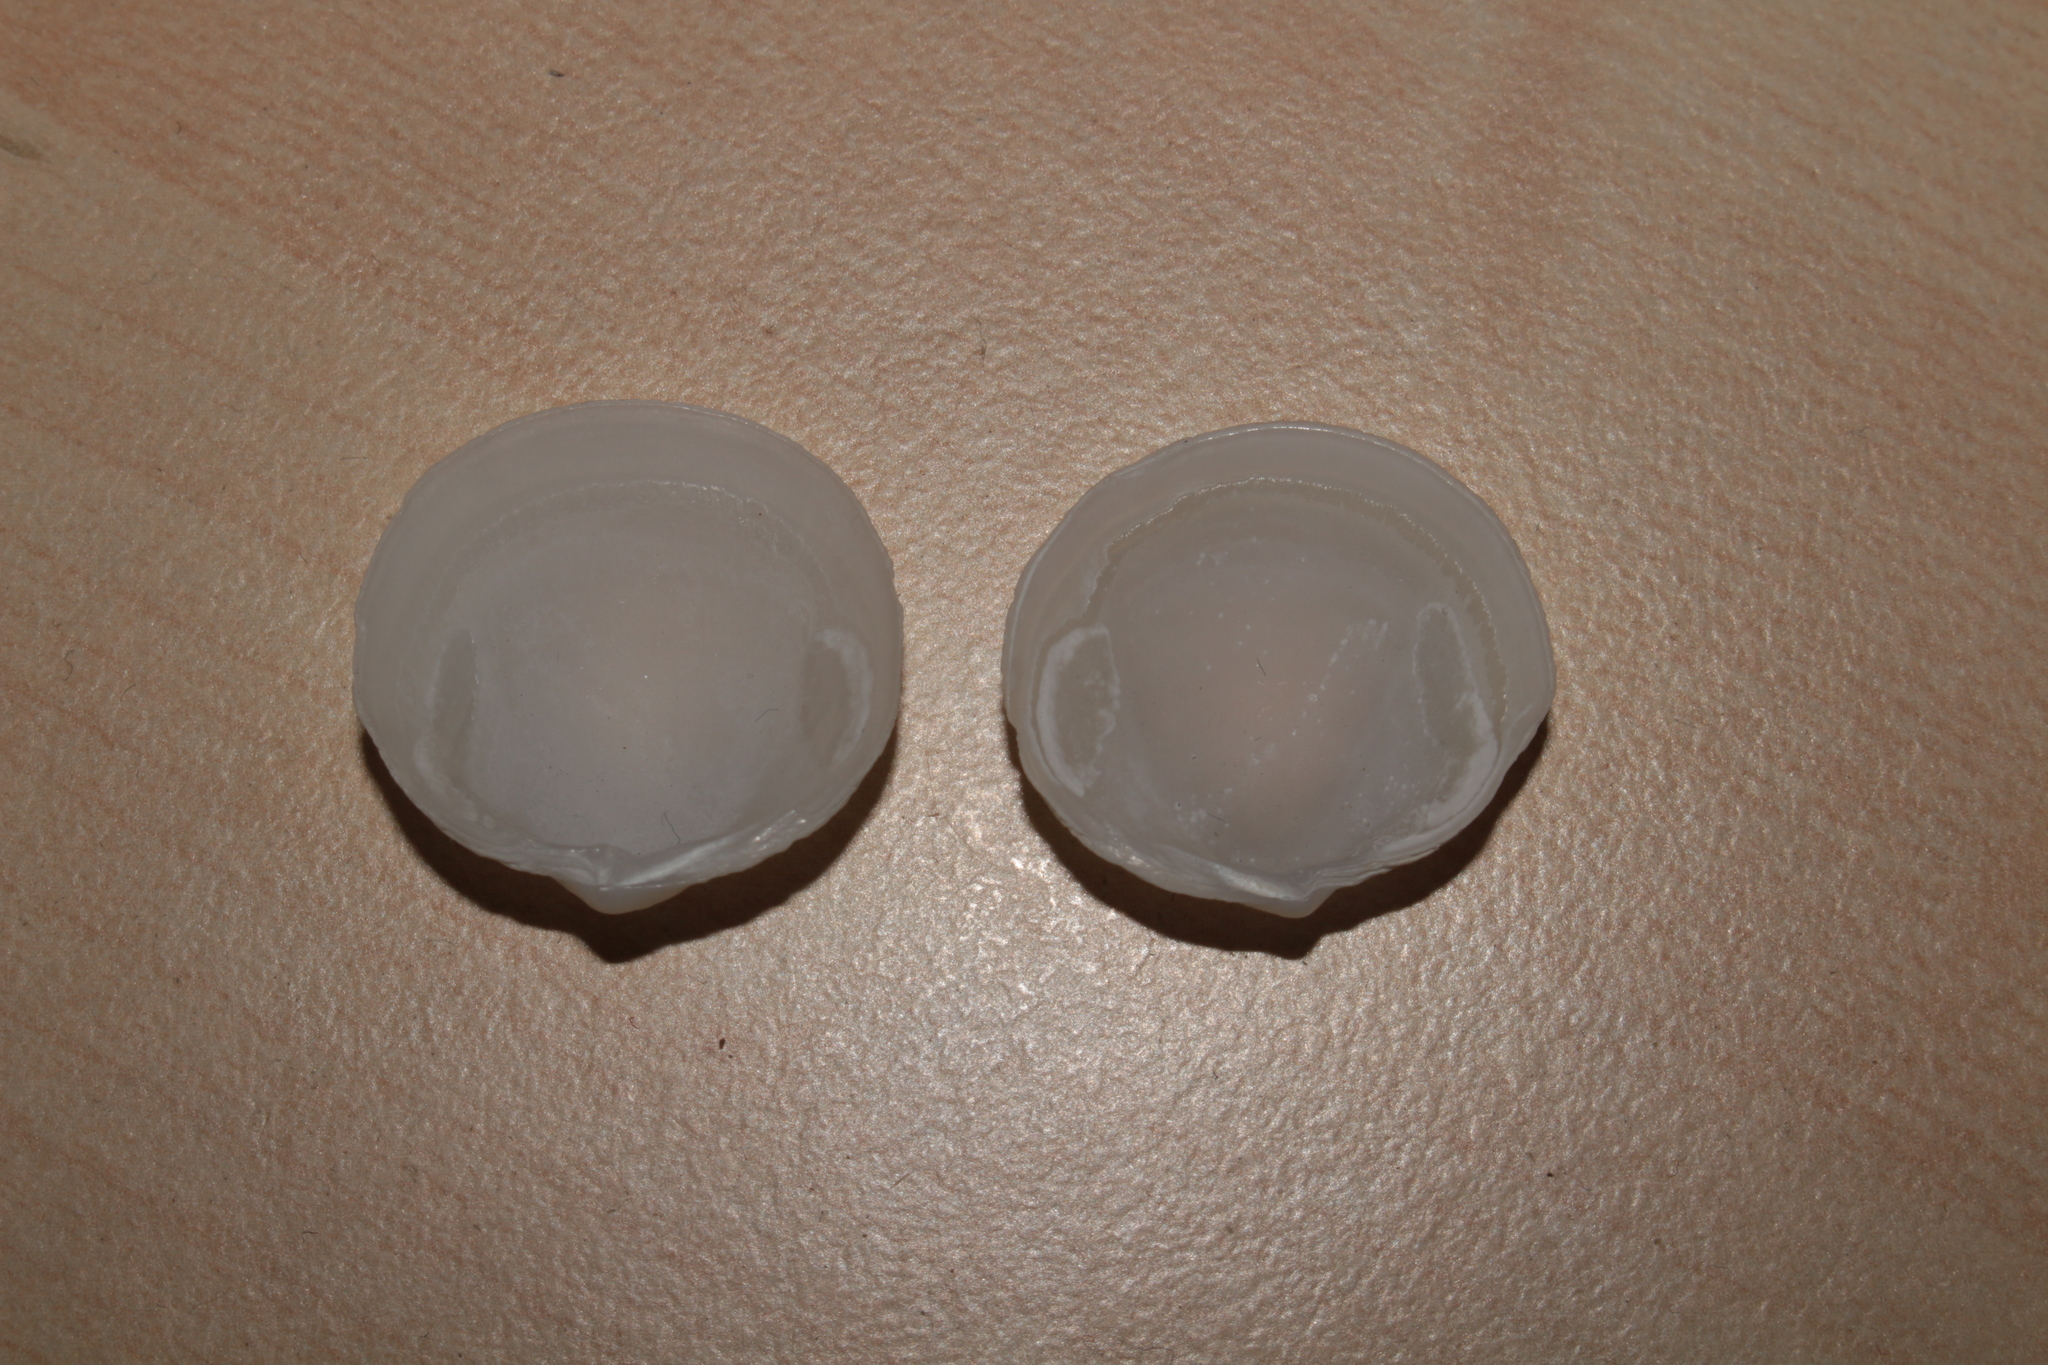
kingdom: Animalia
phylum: Mollusca
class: Bivalvia
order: Lucinida
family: Lucinidae
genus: Loripes
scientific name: Loripes orbiculatus
